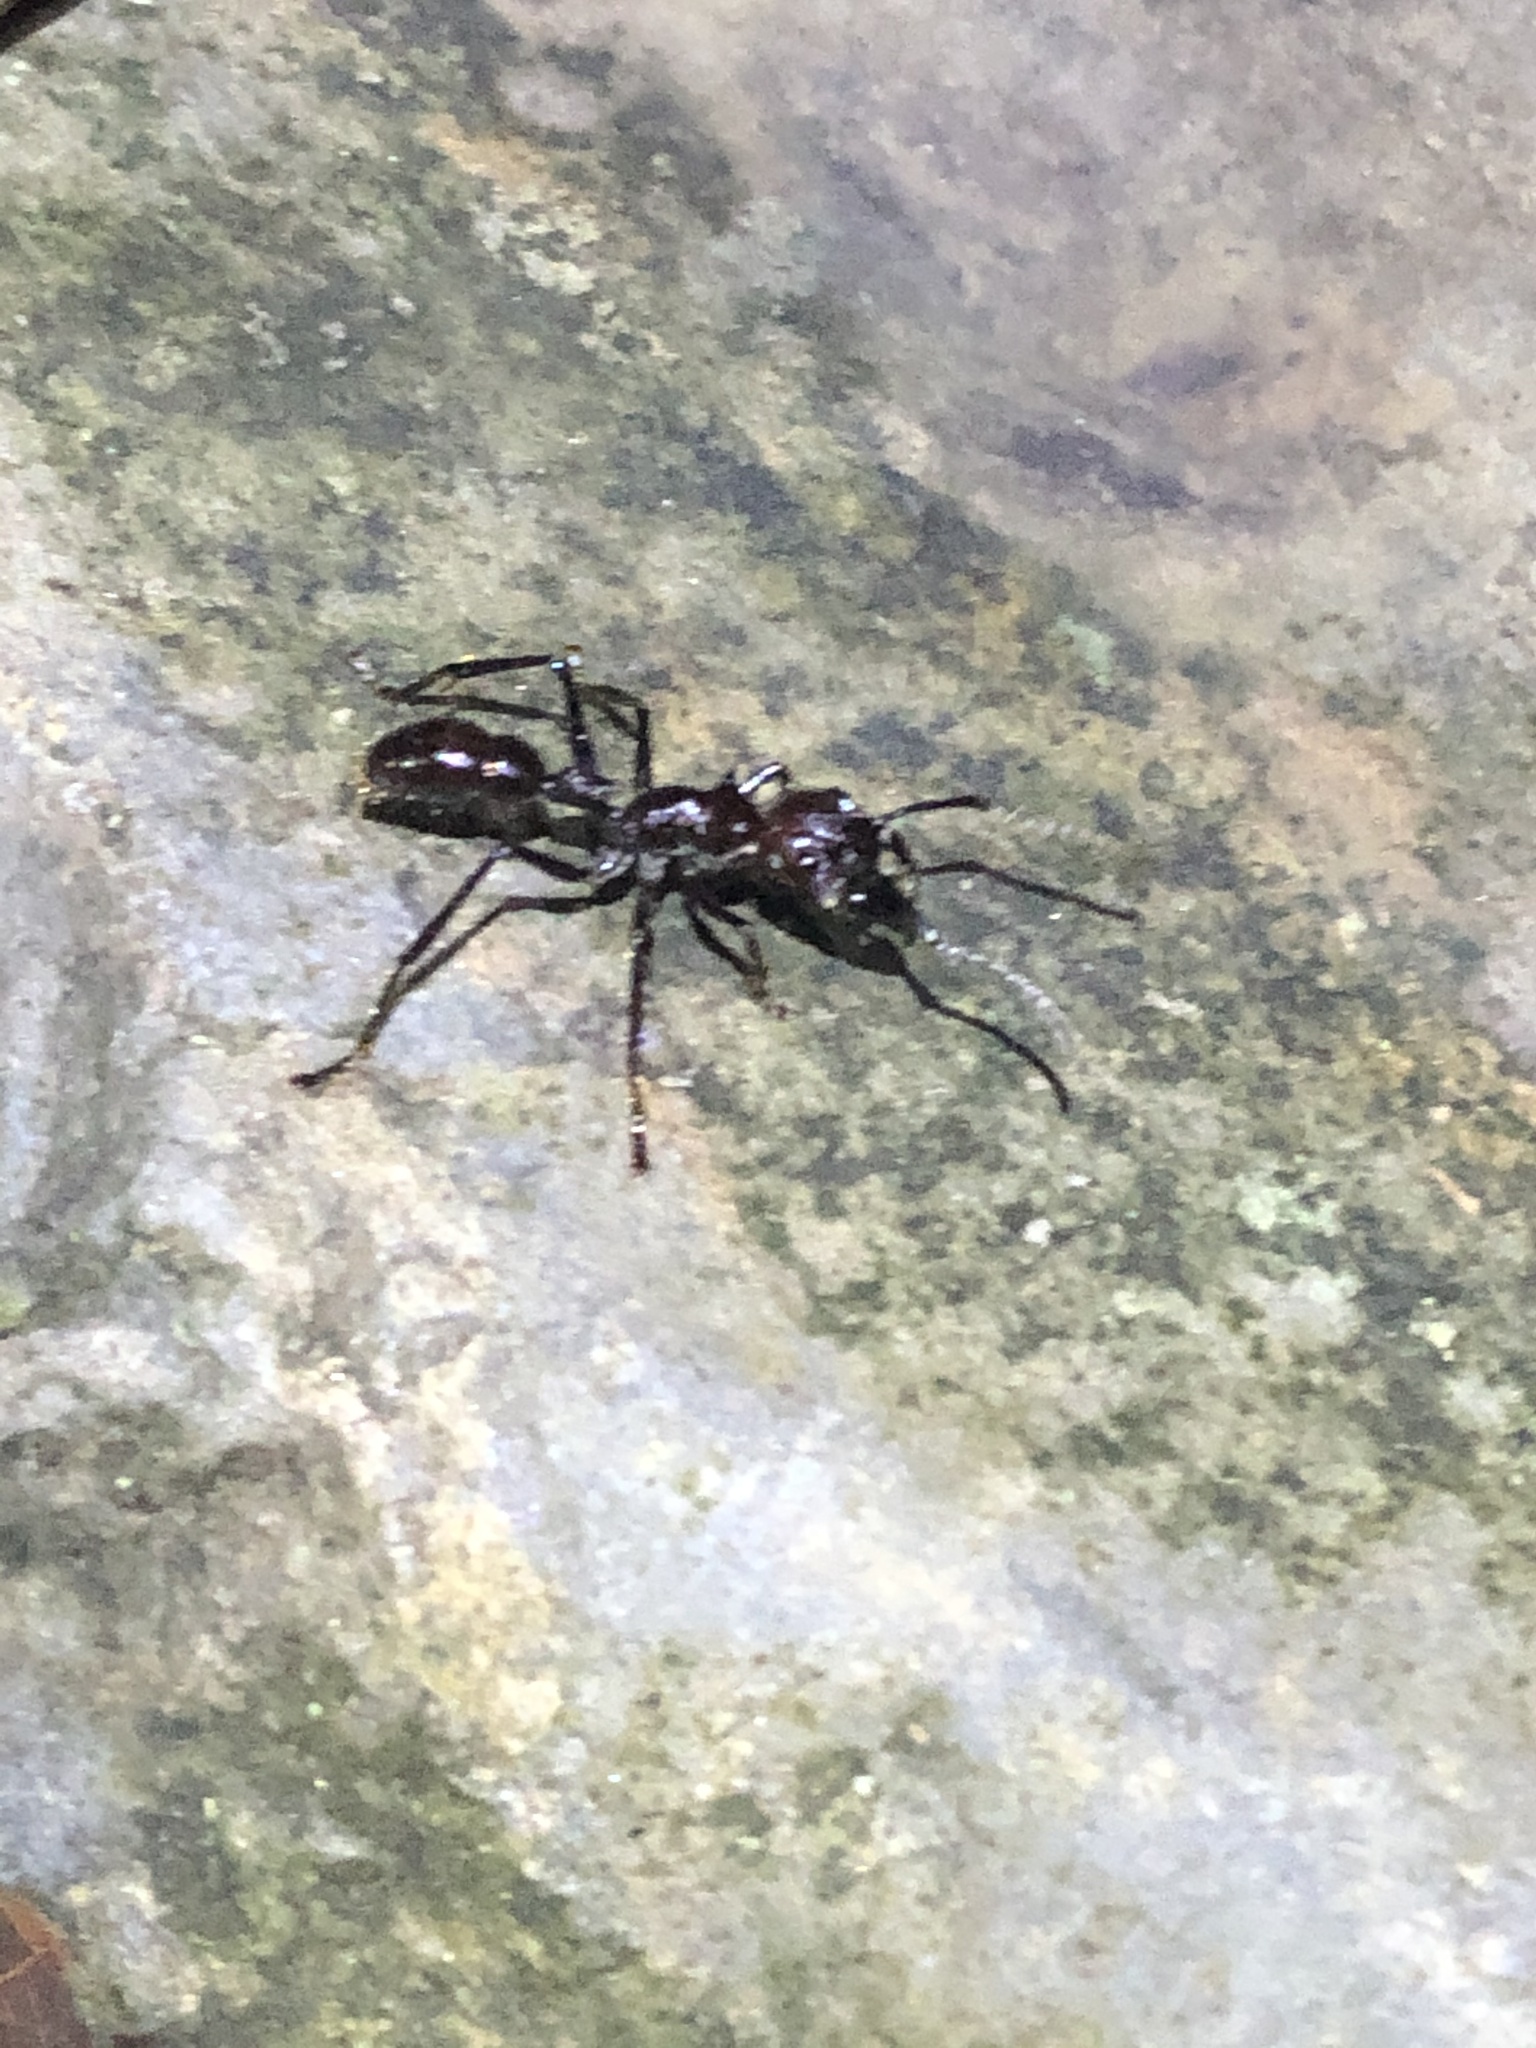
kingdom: Animalia
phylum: Arthropoda
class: Insecta
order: Hymenoptera
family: Formicidae
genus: Paraponera
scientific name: Paraponera clavata
